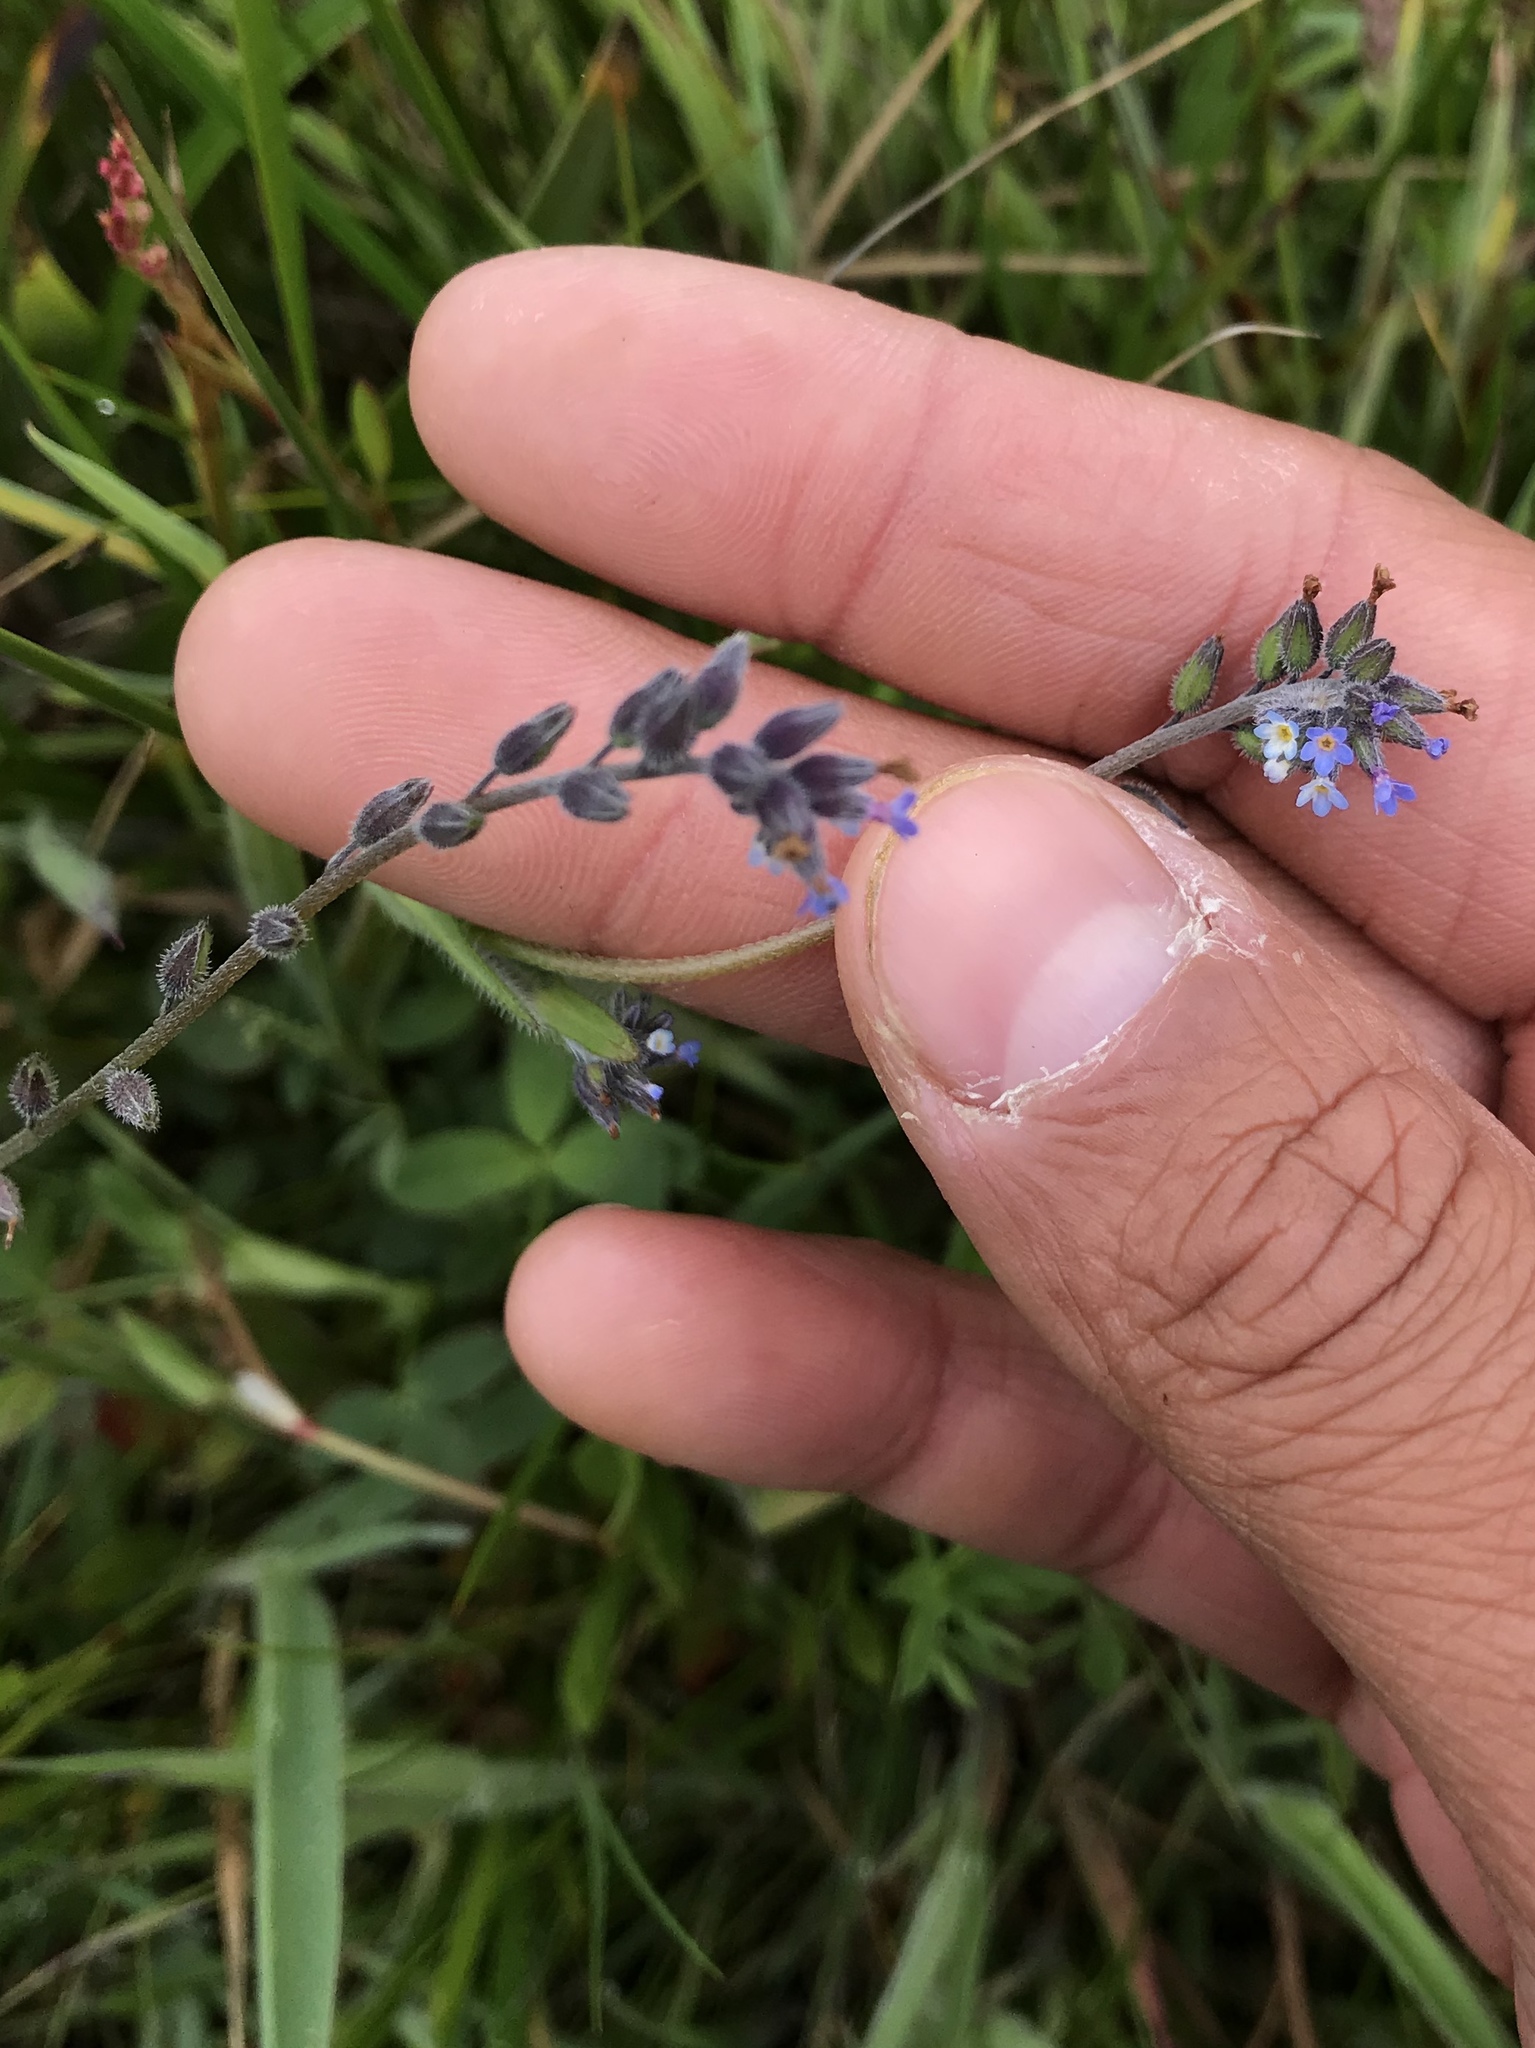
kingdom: Plantae
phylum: Tracheophyta
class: Magnoliopsida
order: Boraginales
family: Boraginaceae
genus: Myosotis
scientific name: Myosotis discolor
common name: Changing forget-me-not
